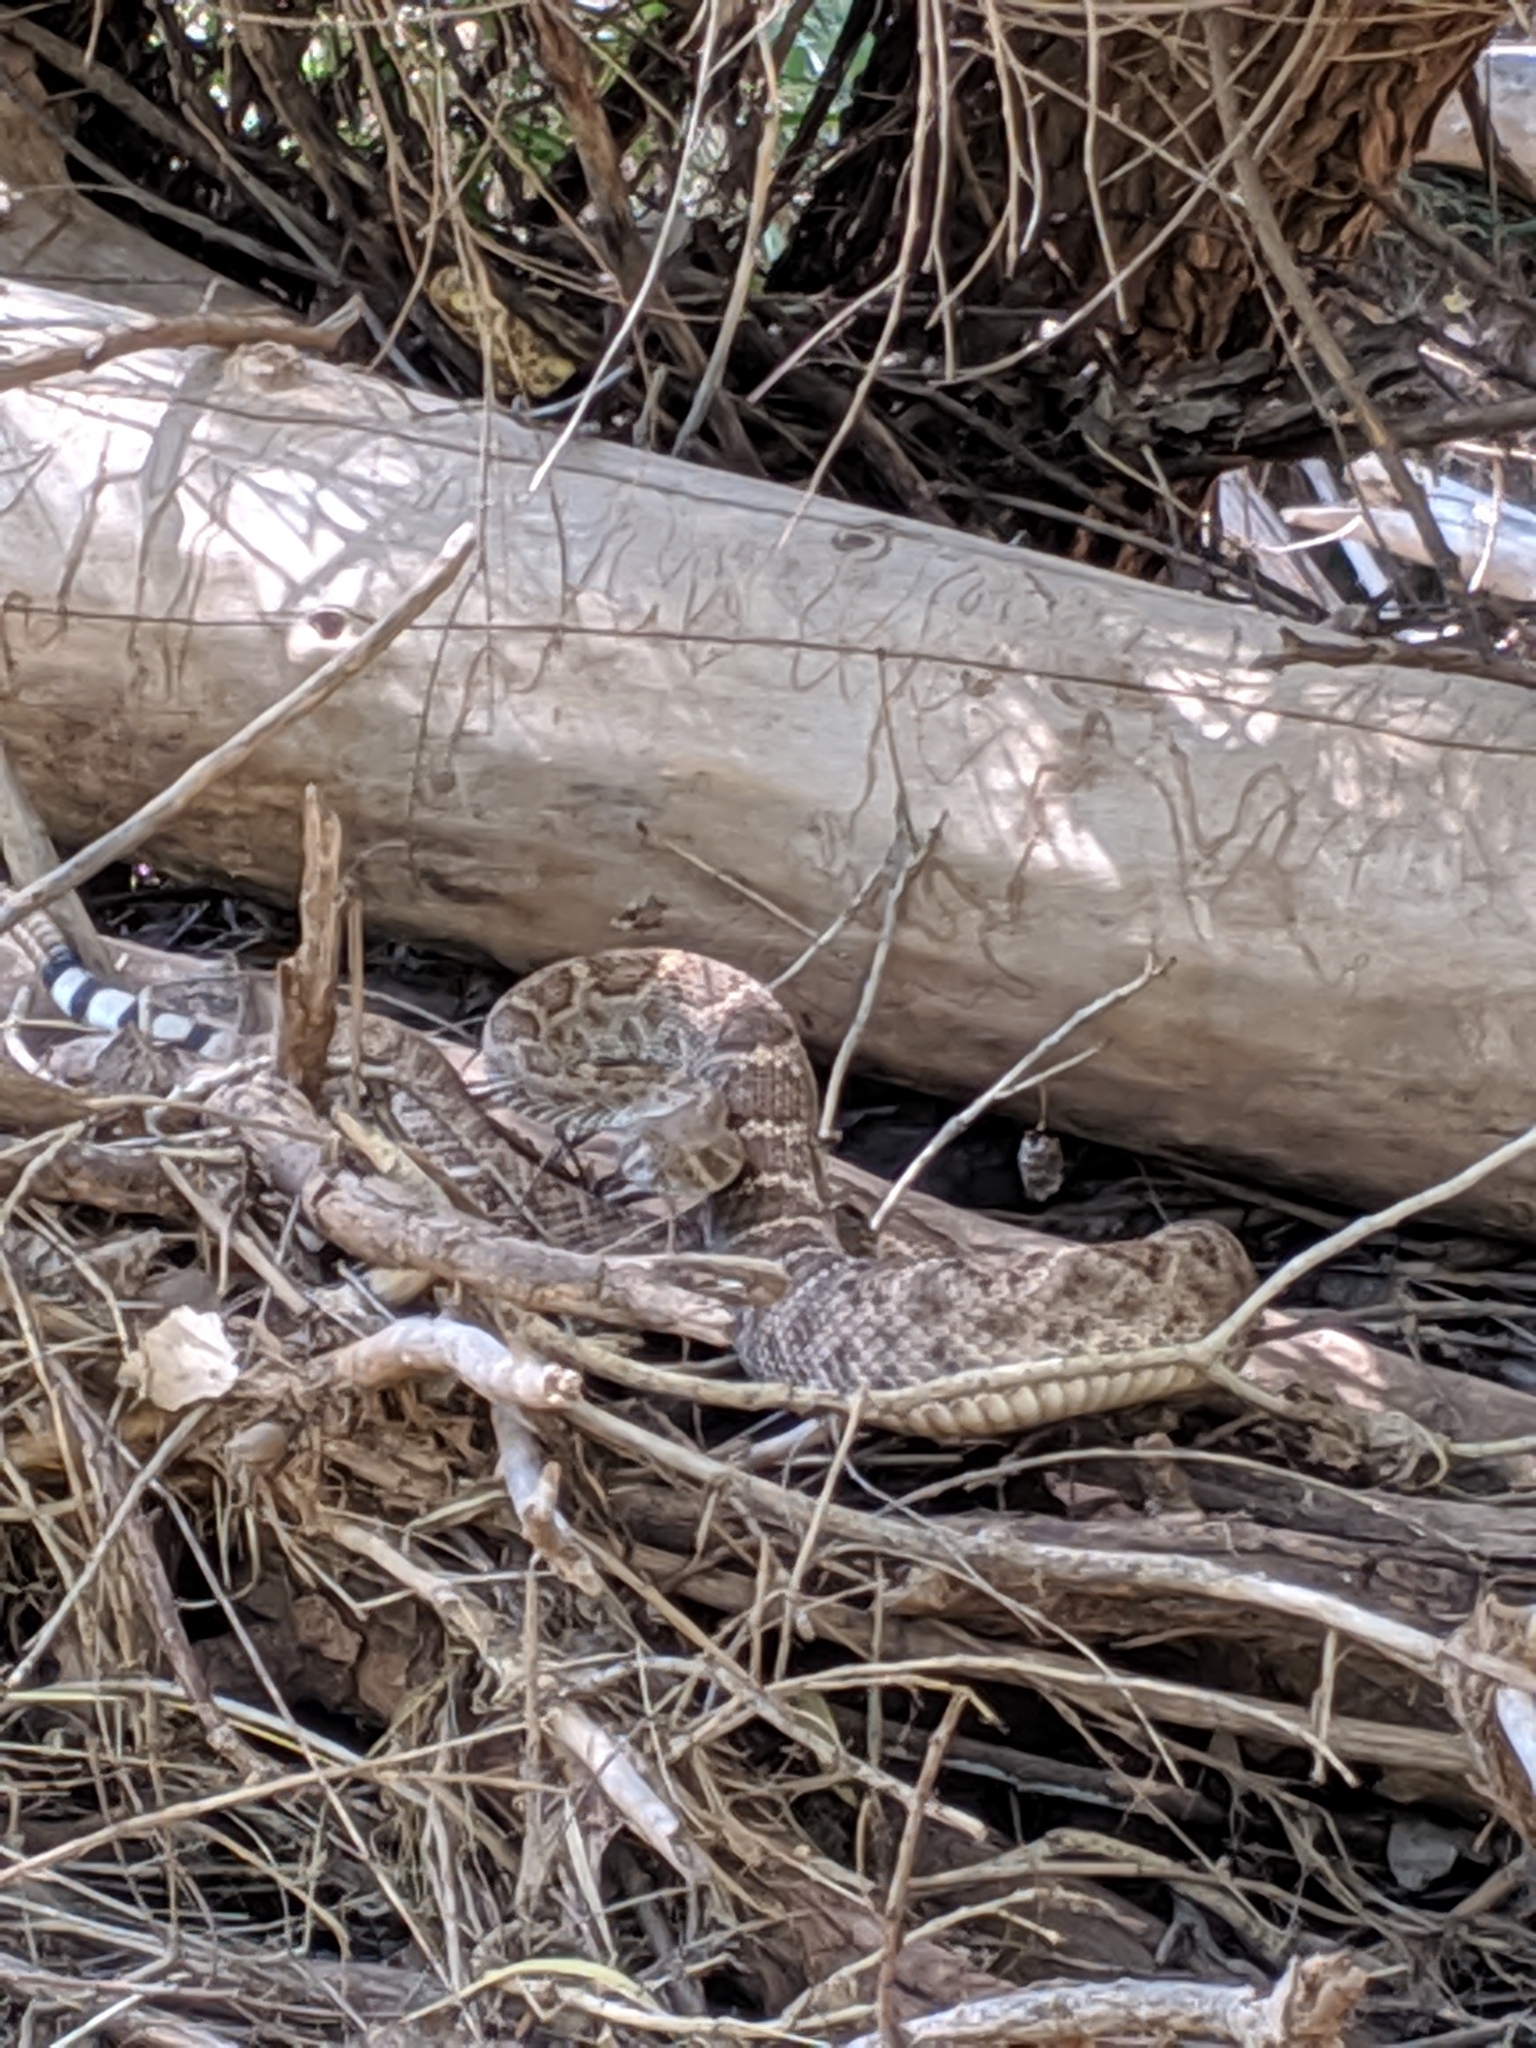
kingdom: Animalia
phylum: Chordata
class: Squamata
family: Viperidae
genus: Crotalus
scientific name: Crotalus atrox
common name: Western diamond-backed rattlesnake
